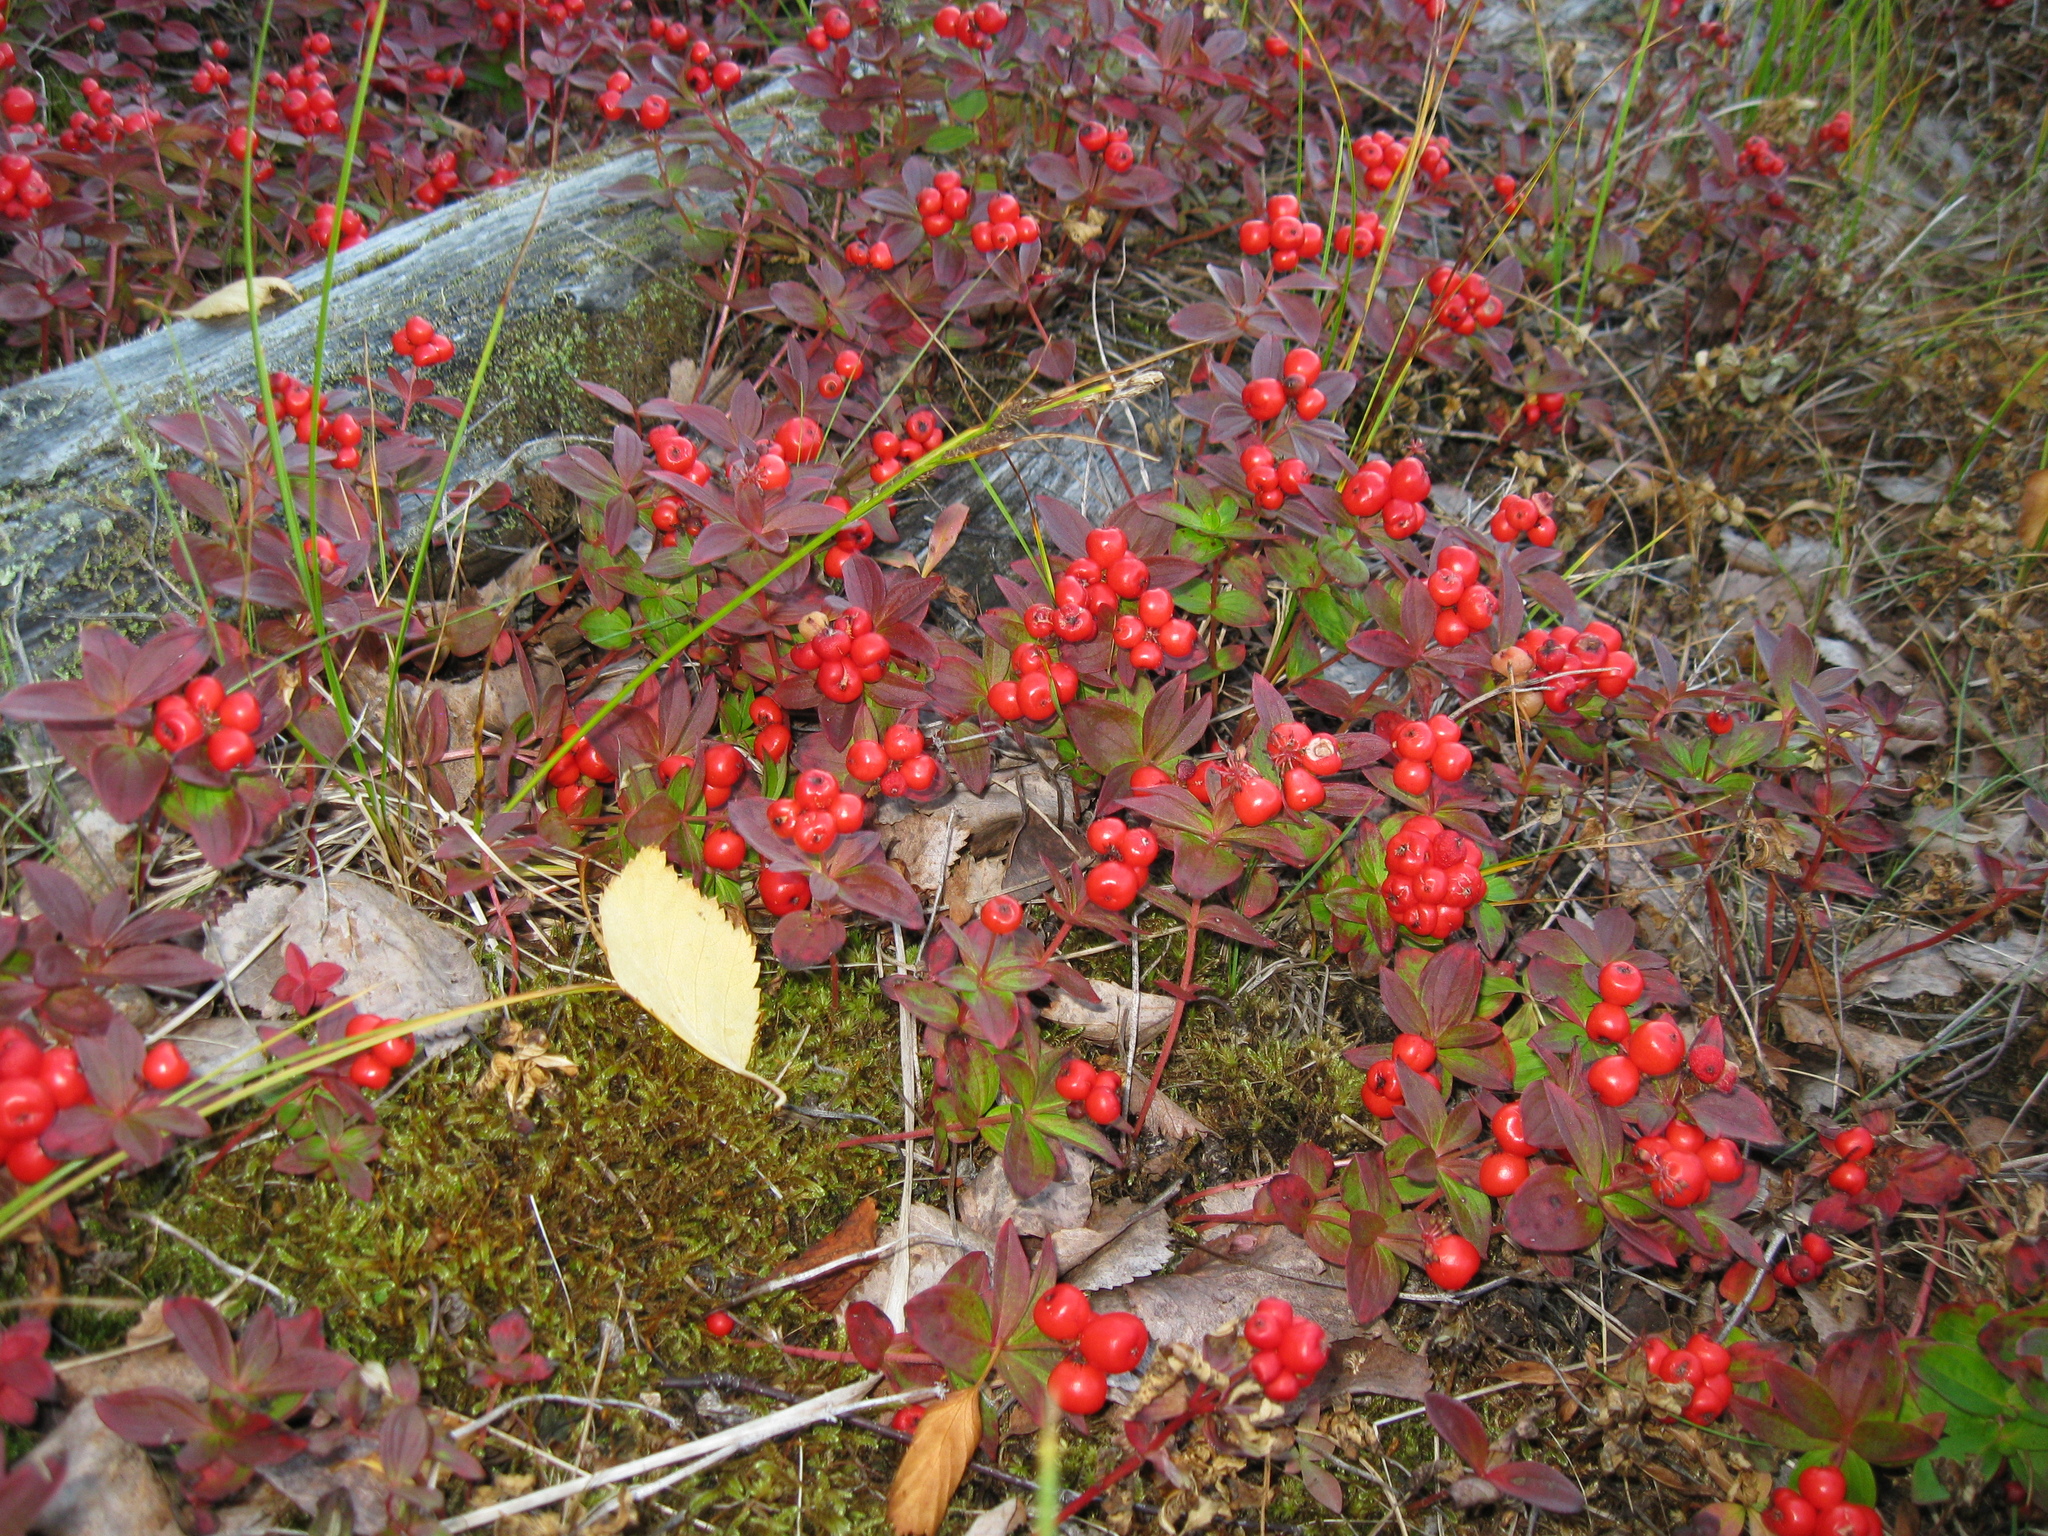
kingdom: Plantae
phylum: Tracheophyta
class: Magnoliopsida
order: Cornales
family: Cornaceae
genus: Cornus
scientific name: Cornus suecica
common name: Dwarf cornel
